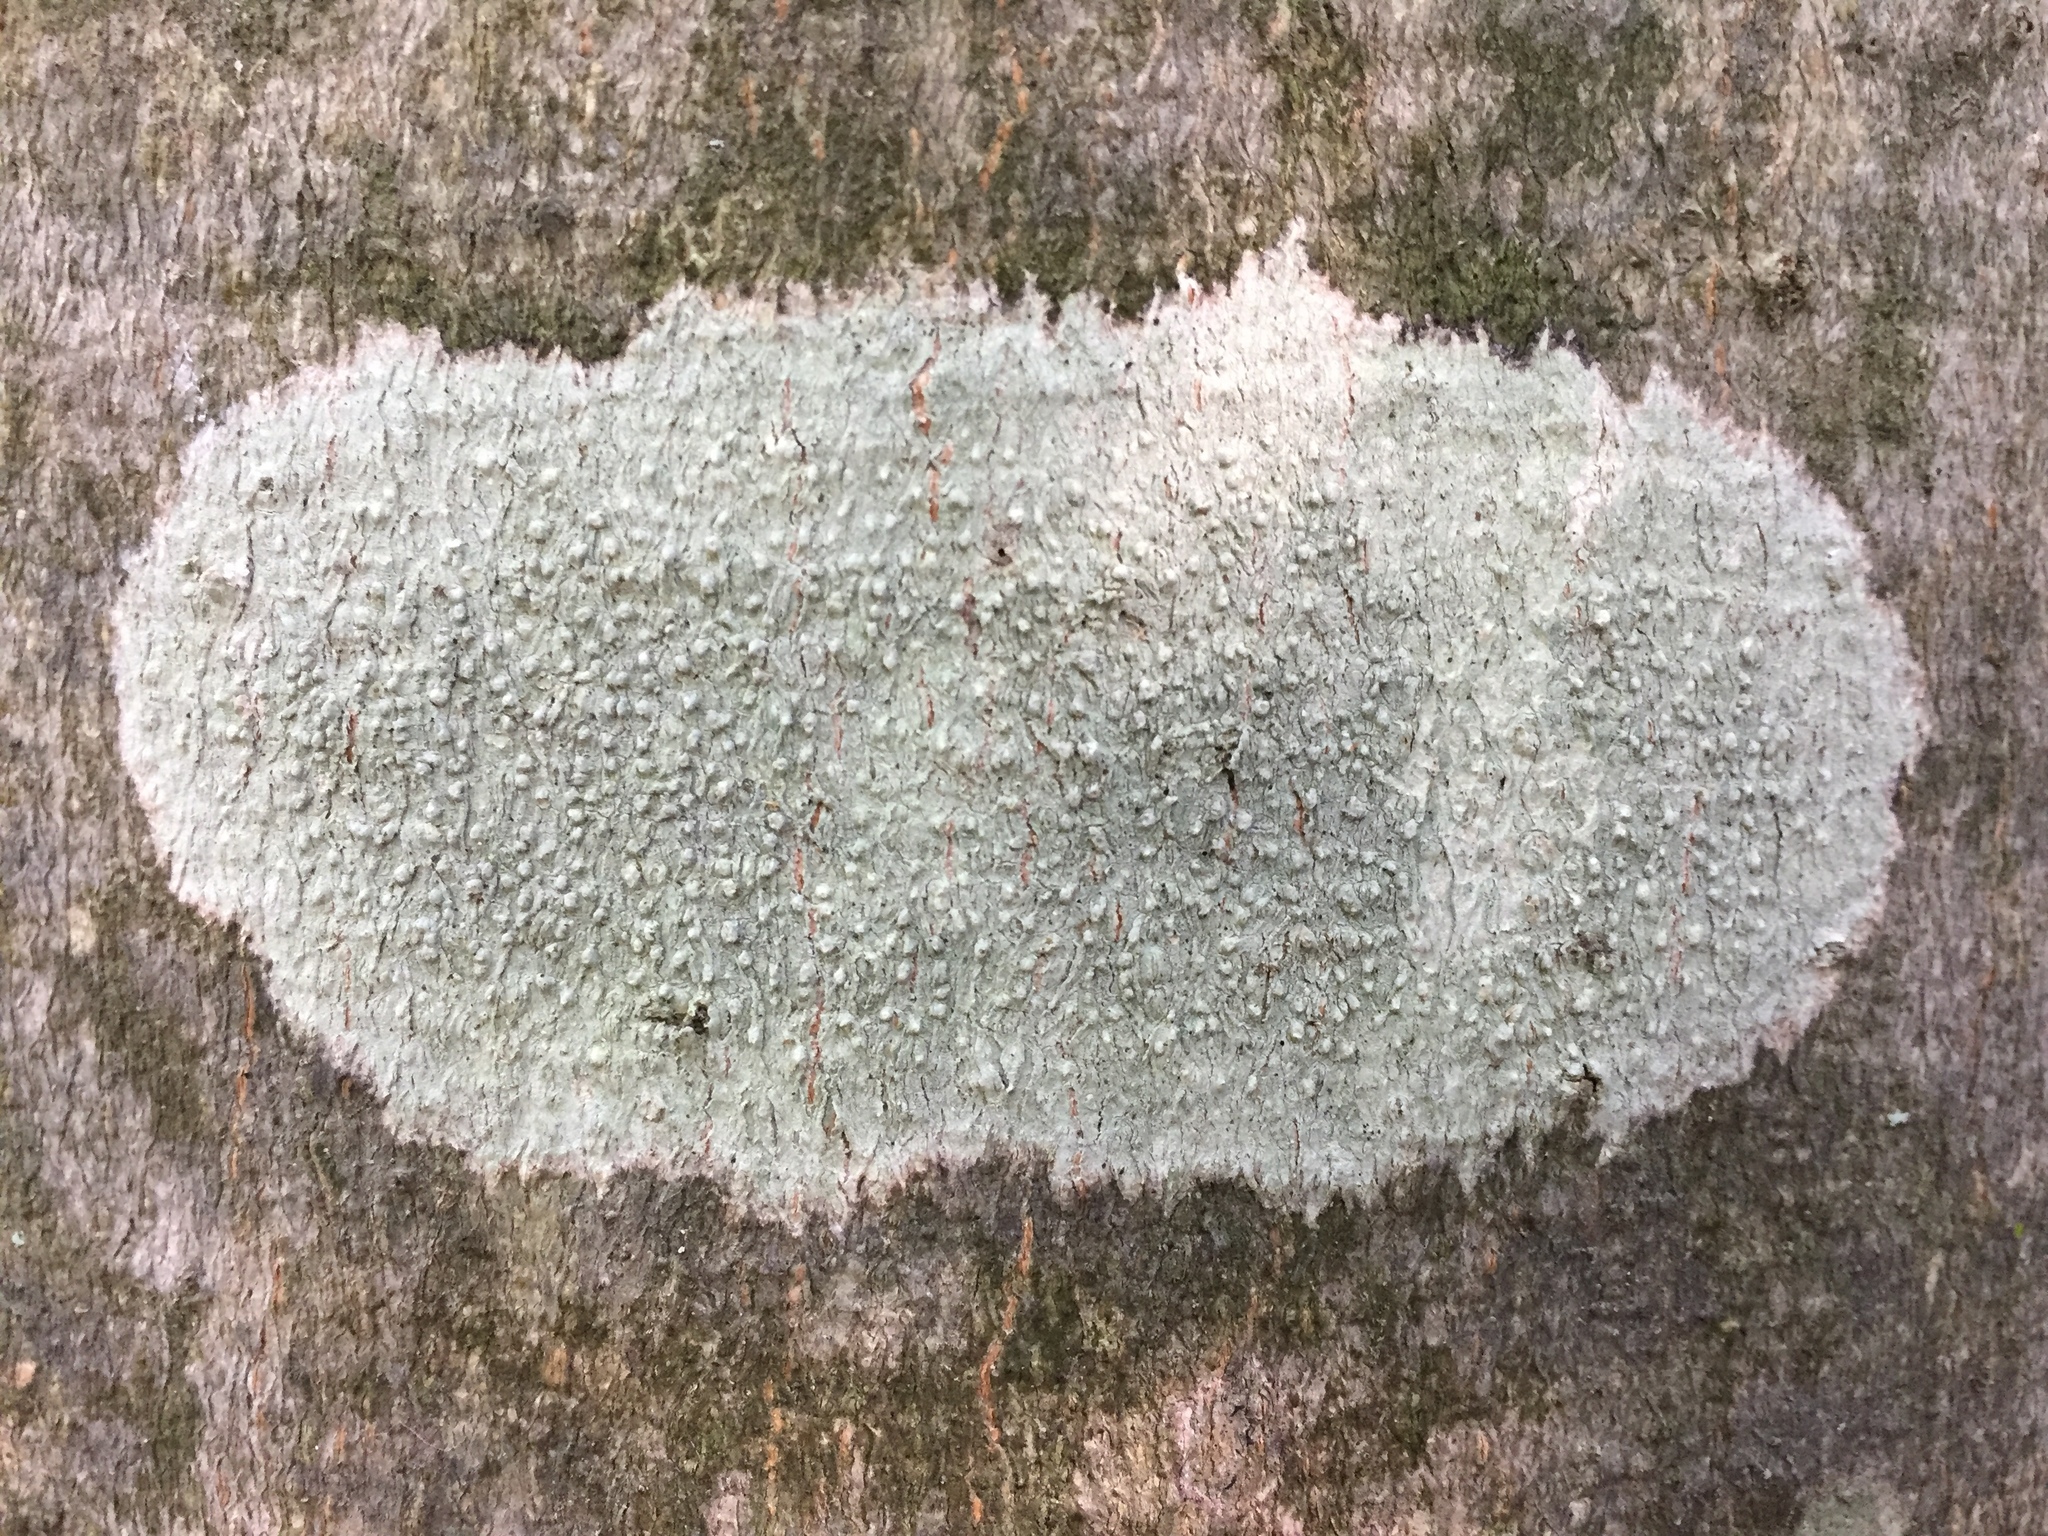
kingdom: Fungi
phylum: Ascomycota
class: Lecanoromycetes
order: Pertusariales
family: Pertusariaceae
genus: Pertusaria
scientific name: Pertusaria pustulata
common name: Branch bumps
